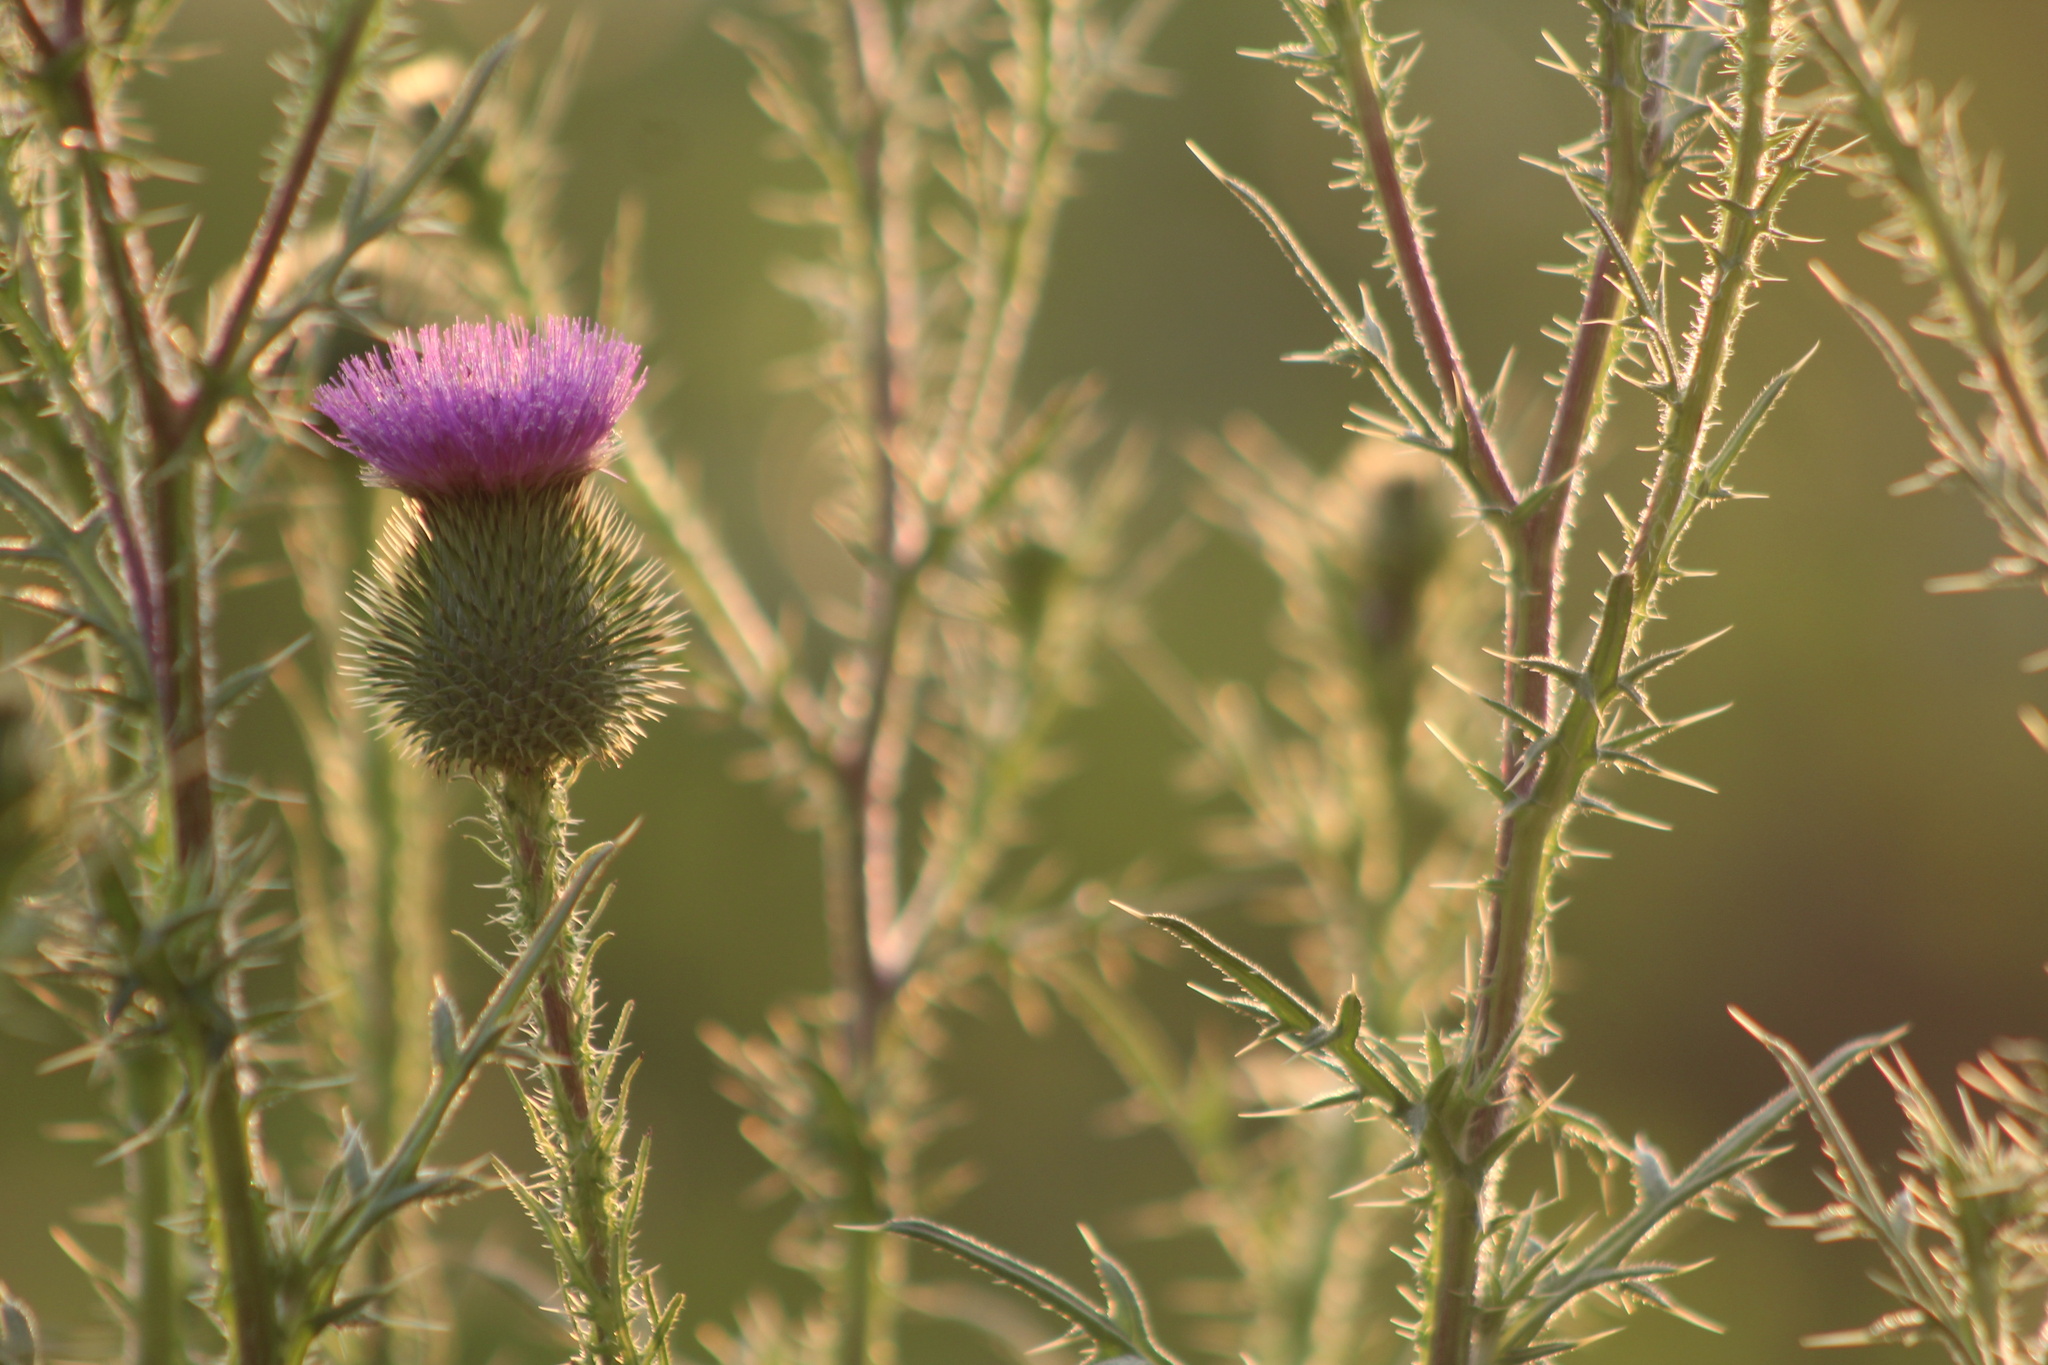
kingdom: Plantae
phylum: Tracheophyta
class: Magnoliopsida
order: Asterales
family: Asteraceae
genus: Cirsium
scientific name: Cirsium vulgare
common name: Bull thistle
